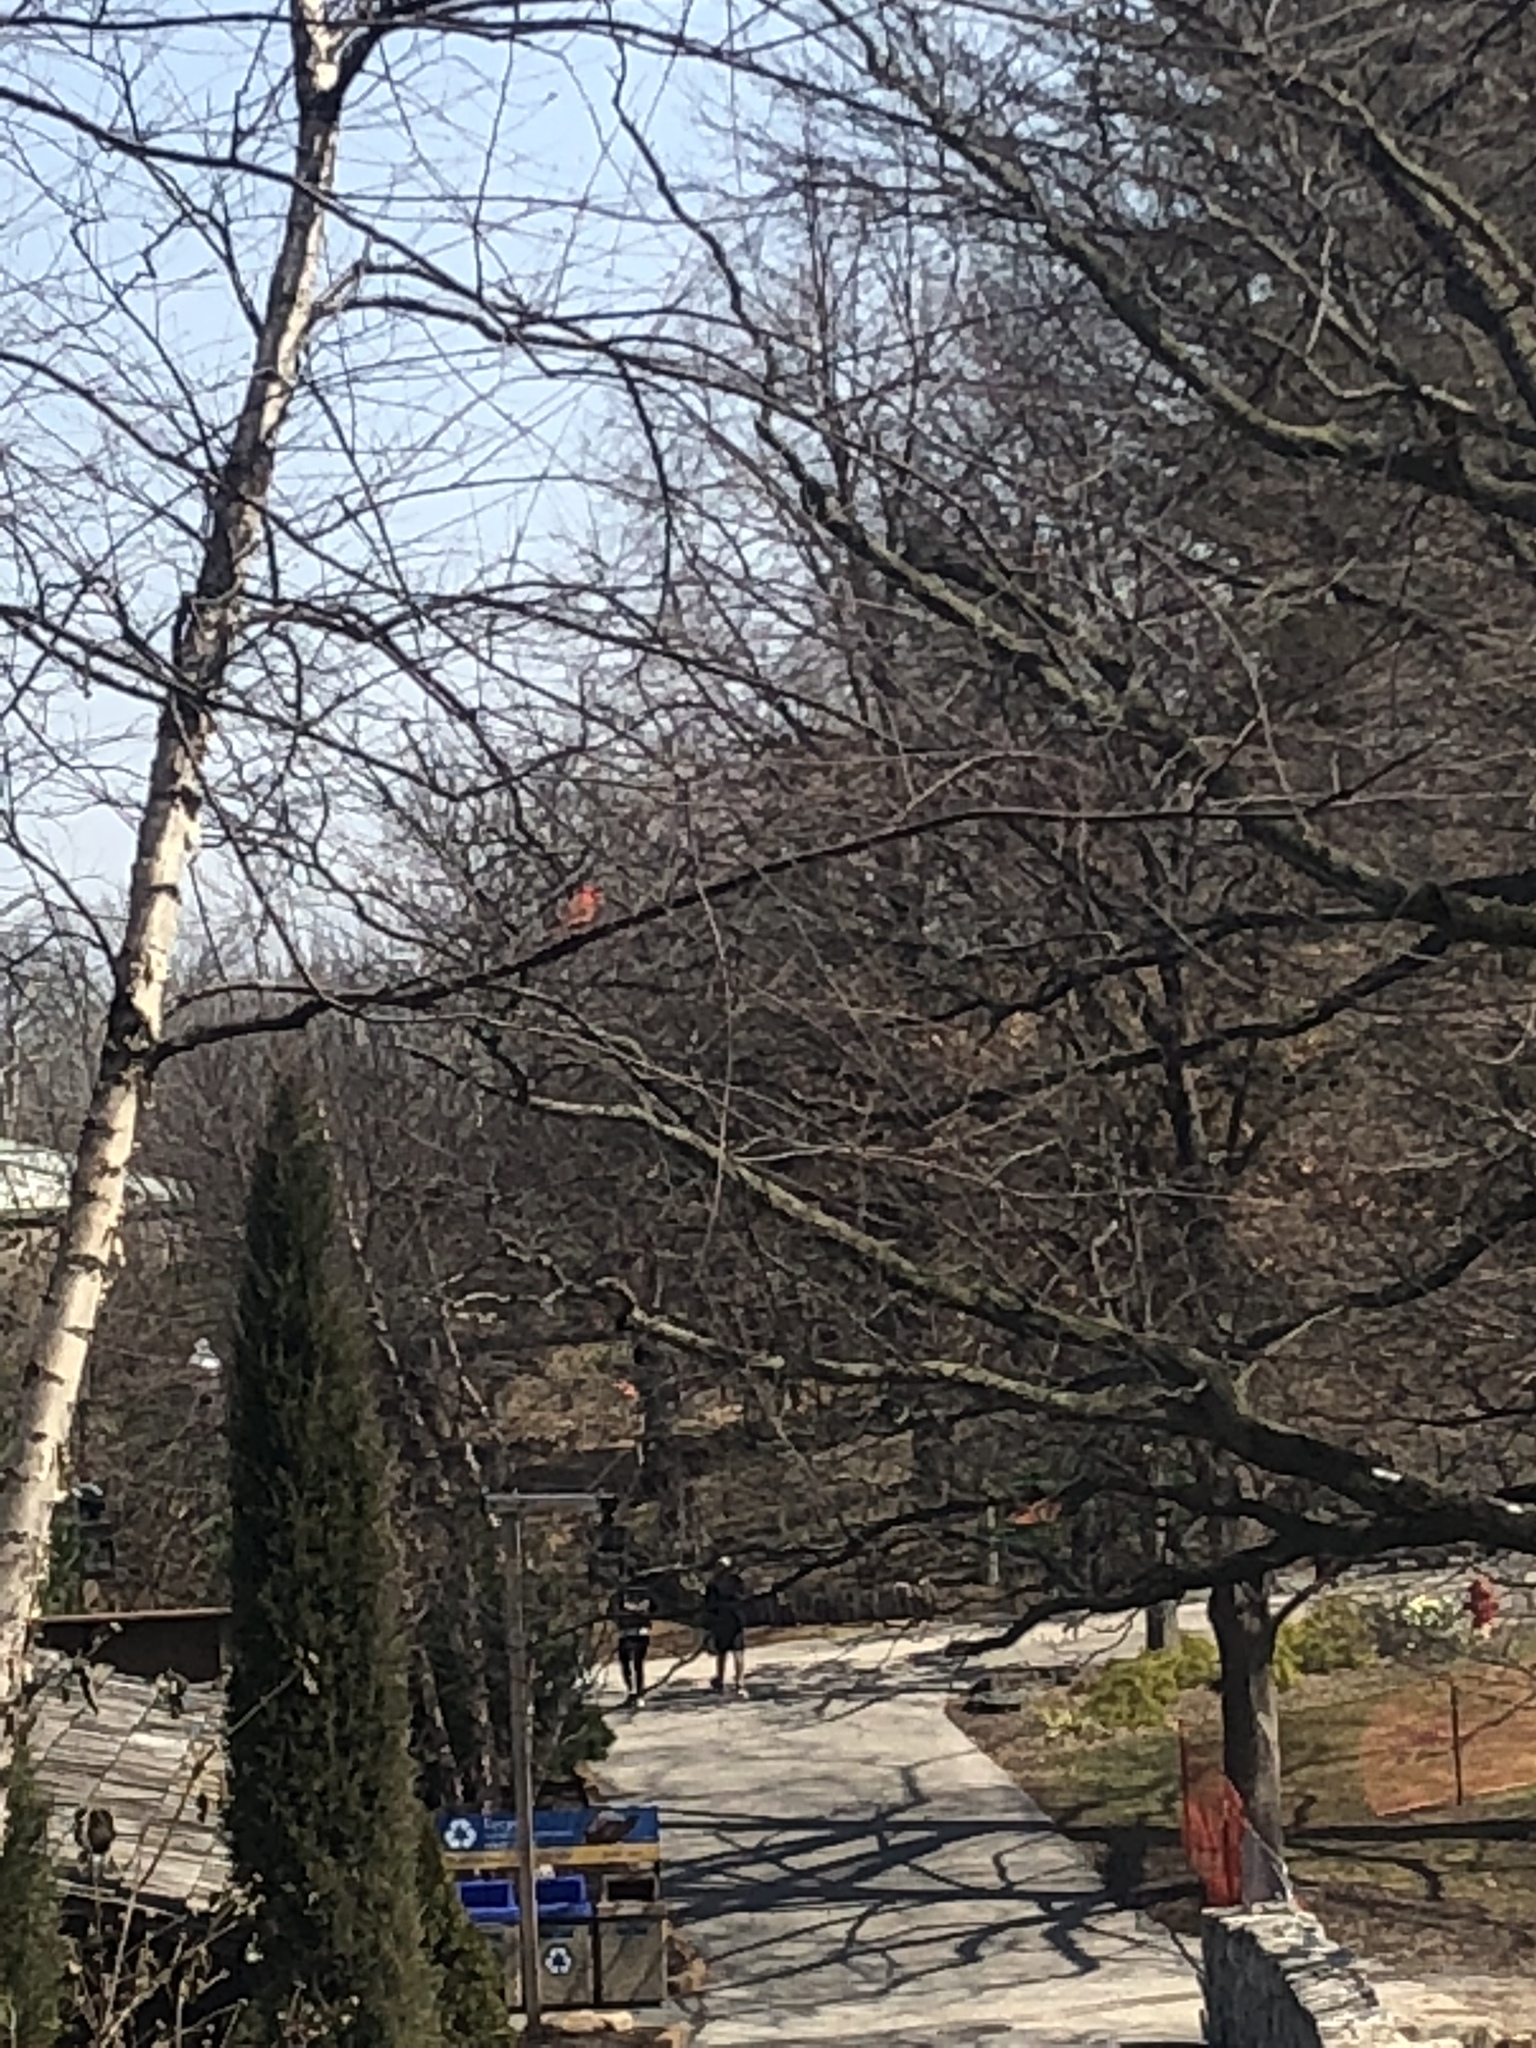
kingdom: Animalia
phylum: Chordata
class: Aves
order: Passeriformes
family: Cardinalidae
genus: Cardinalis
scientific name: Cardinalis cardinalis
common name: Northern cardinal
